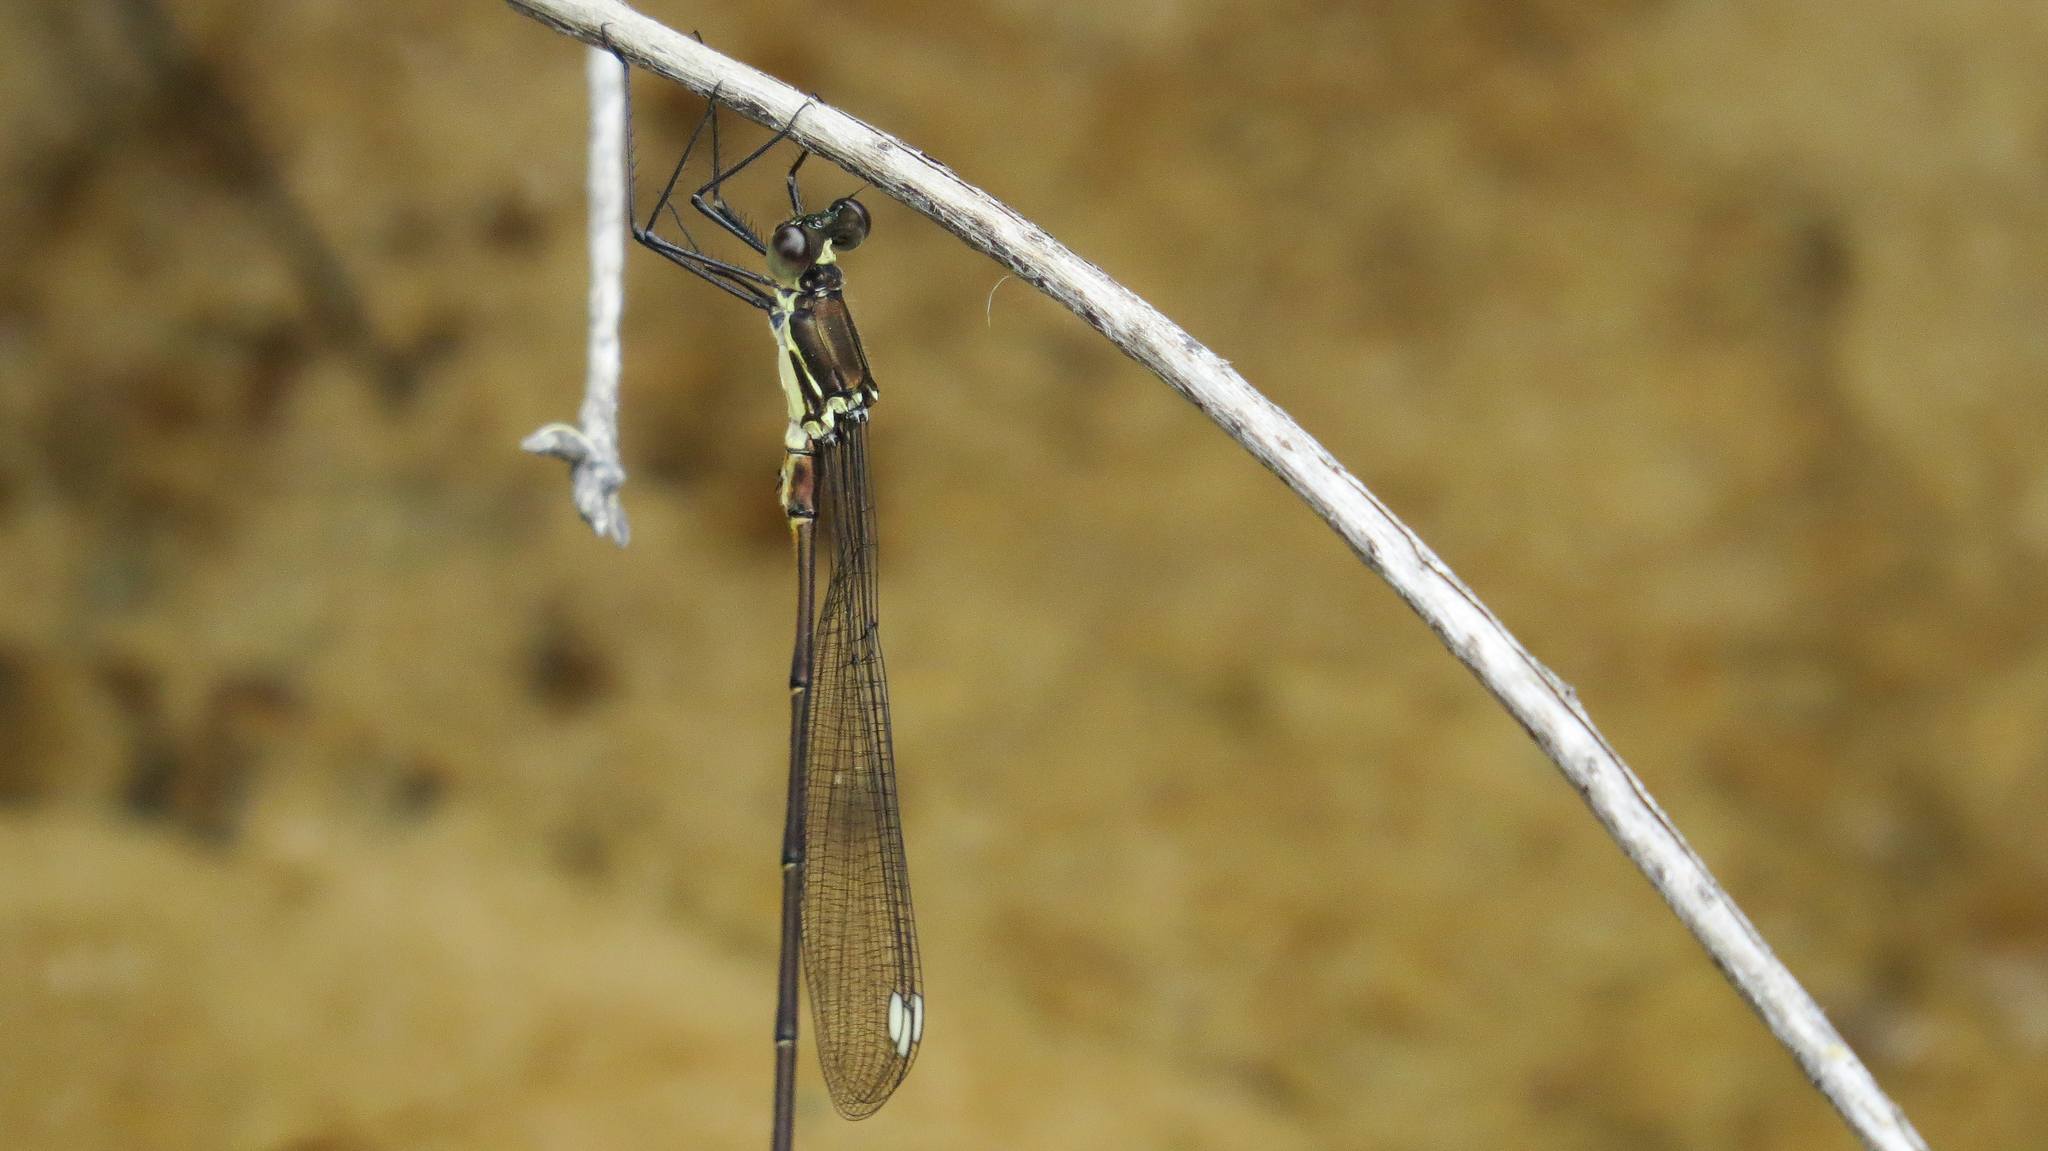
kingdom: Animalia
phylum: Arthropoda
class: Insecta
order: Odonata
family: Synlestidae
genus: Synlestes
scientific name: Synlestes weyersii
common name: Bronze needle
